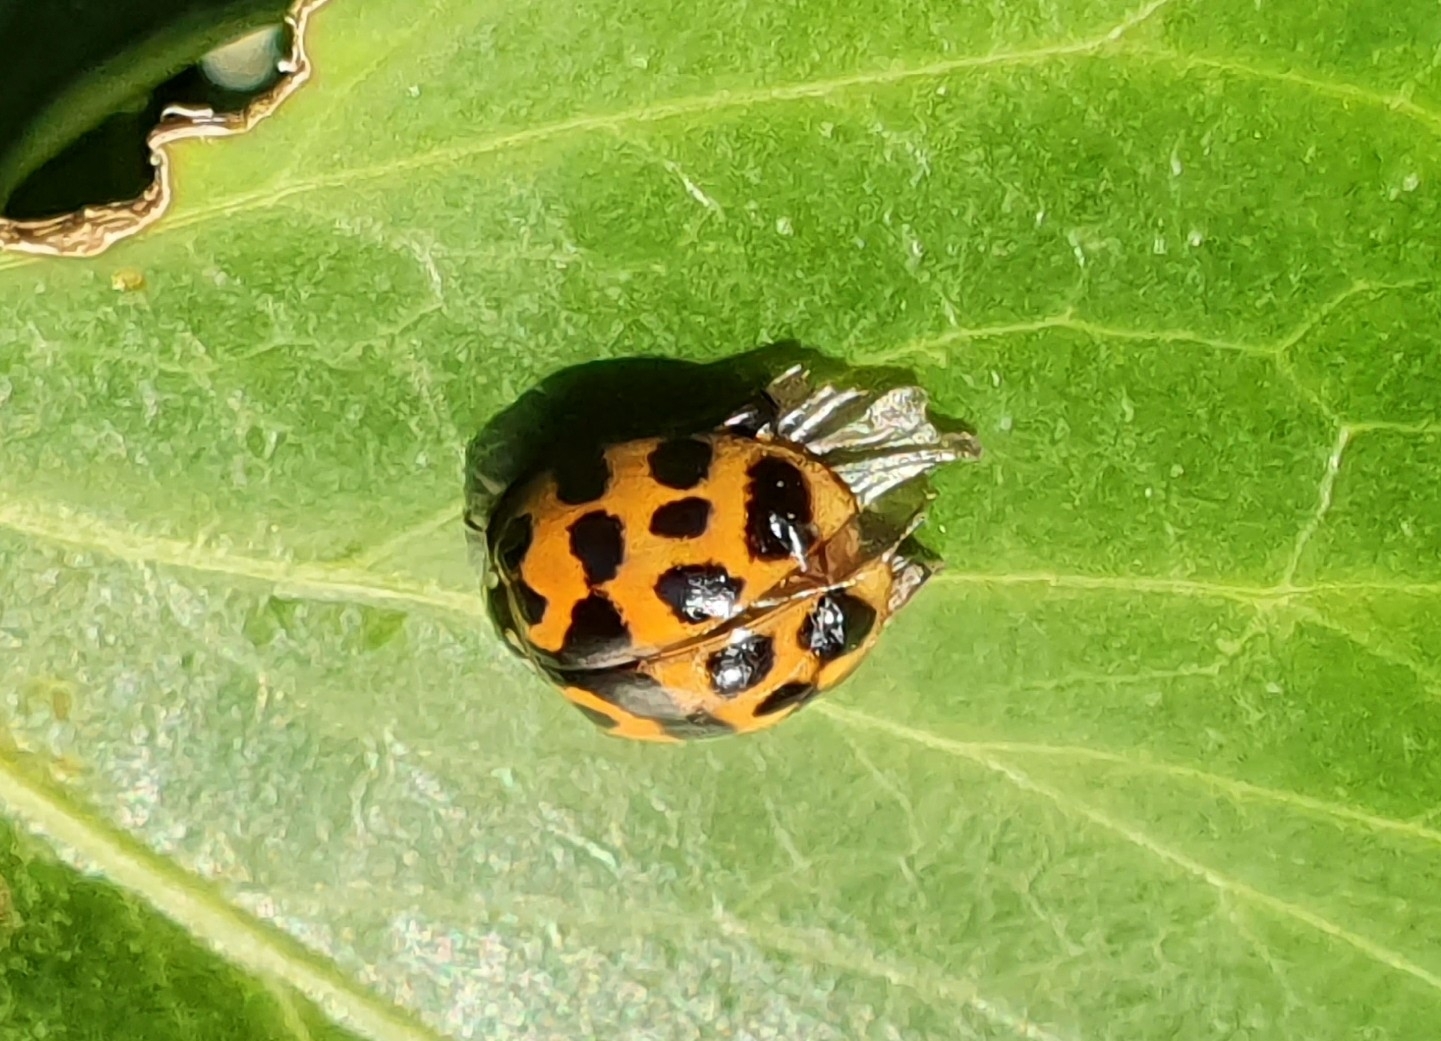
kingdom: Animalia
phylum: Arthropoda
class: Insecta
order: Coleoptera
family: Coccinellidae
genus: Harmonia
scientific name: Harmonia axyridis
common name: Harlequin ladybird
